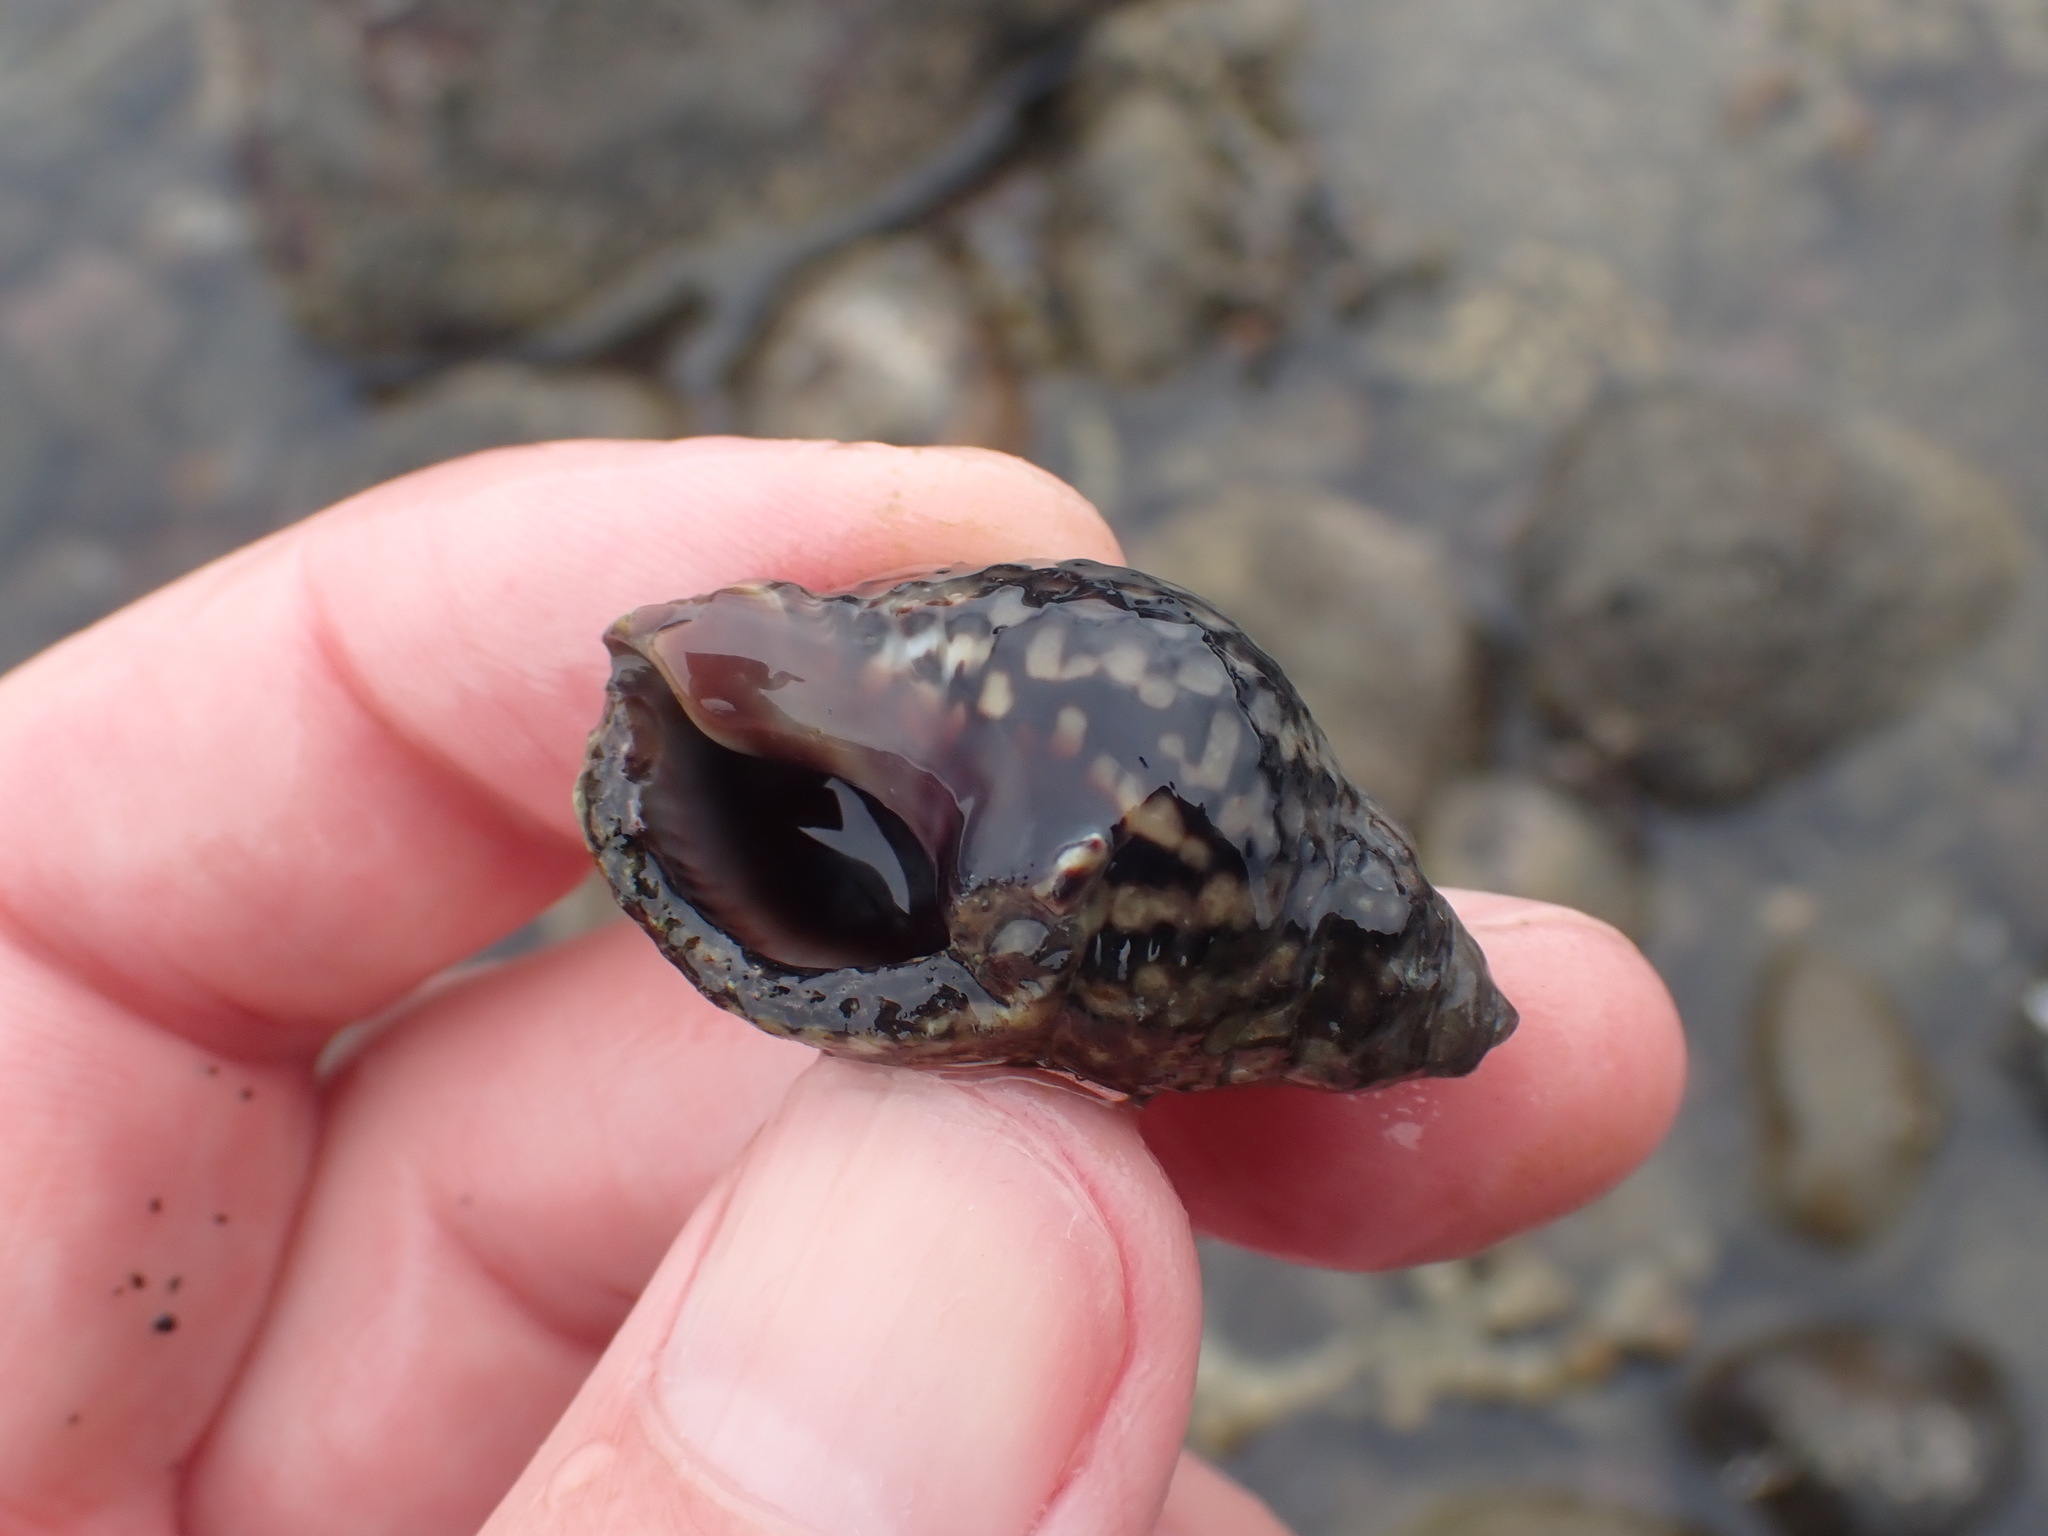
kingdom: Animalia
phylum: Mollusca
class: Gastropoda
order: Neogastropoda
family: Cominellidae
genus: Cominella
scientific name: Cominella maculosa
